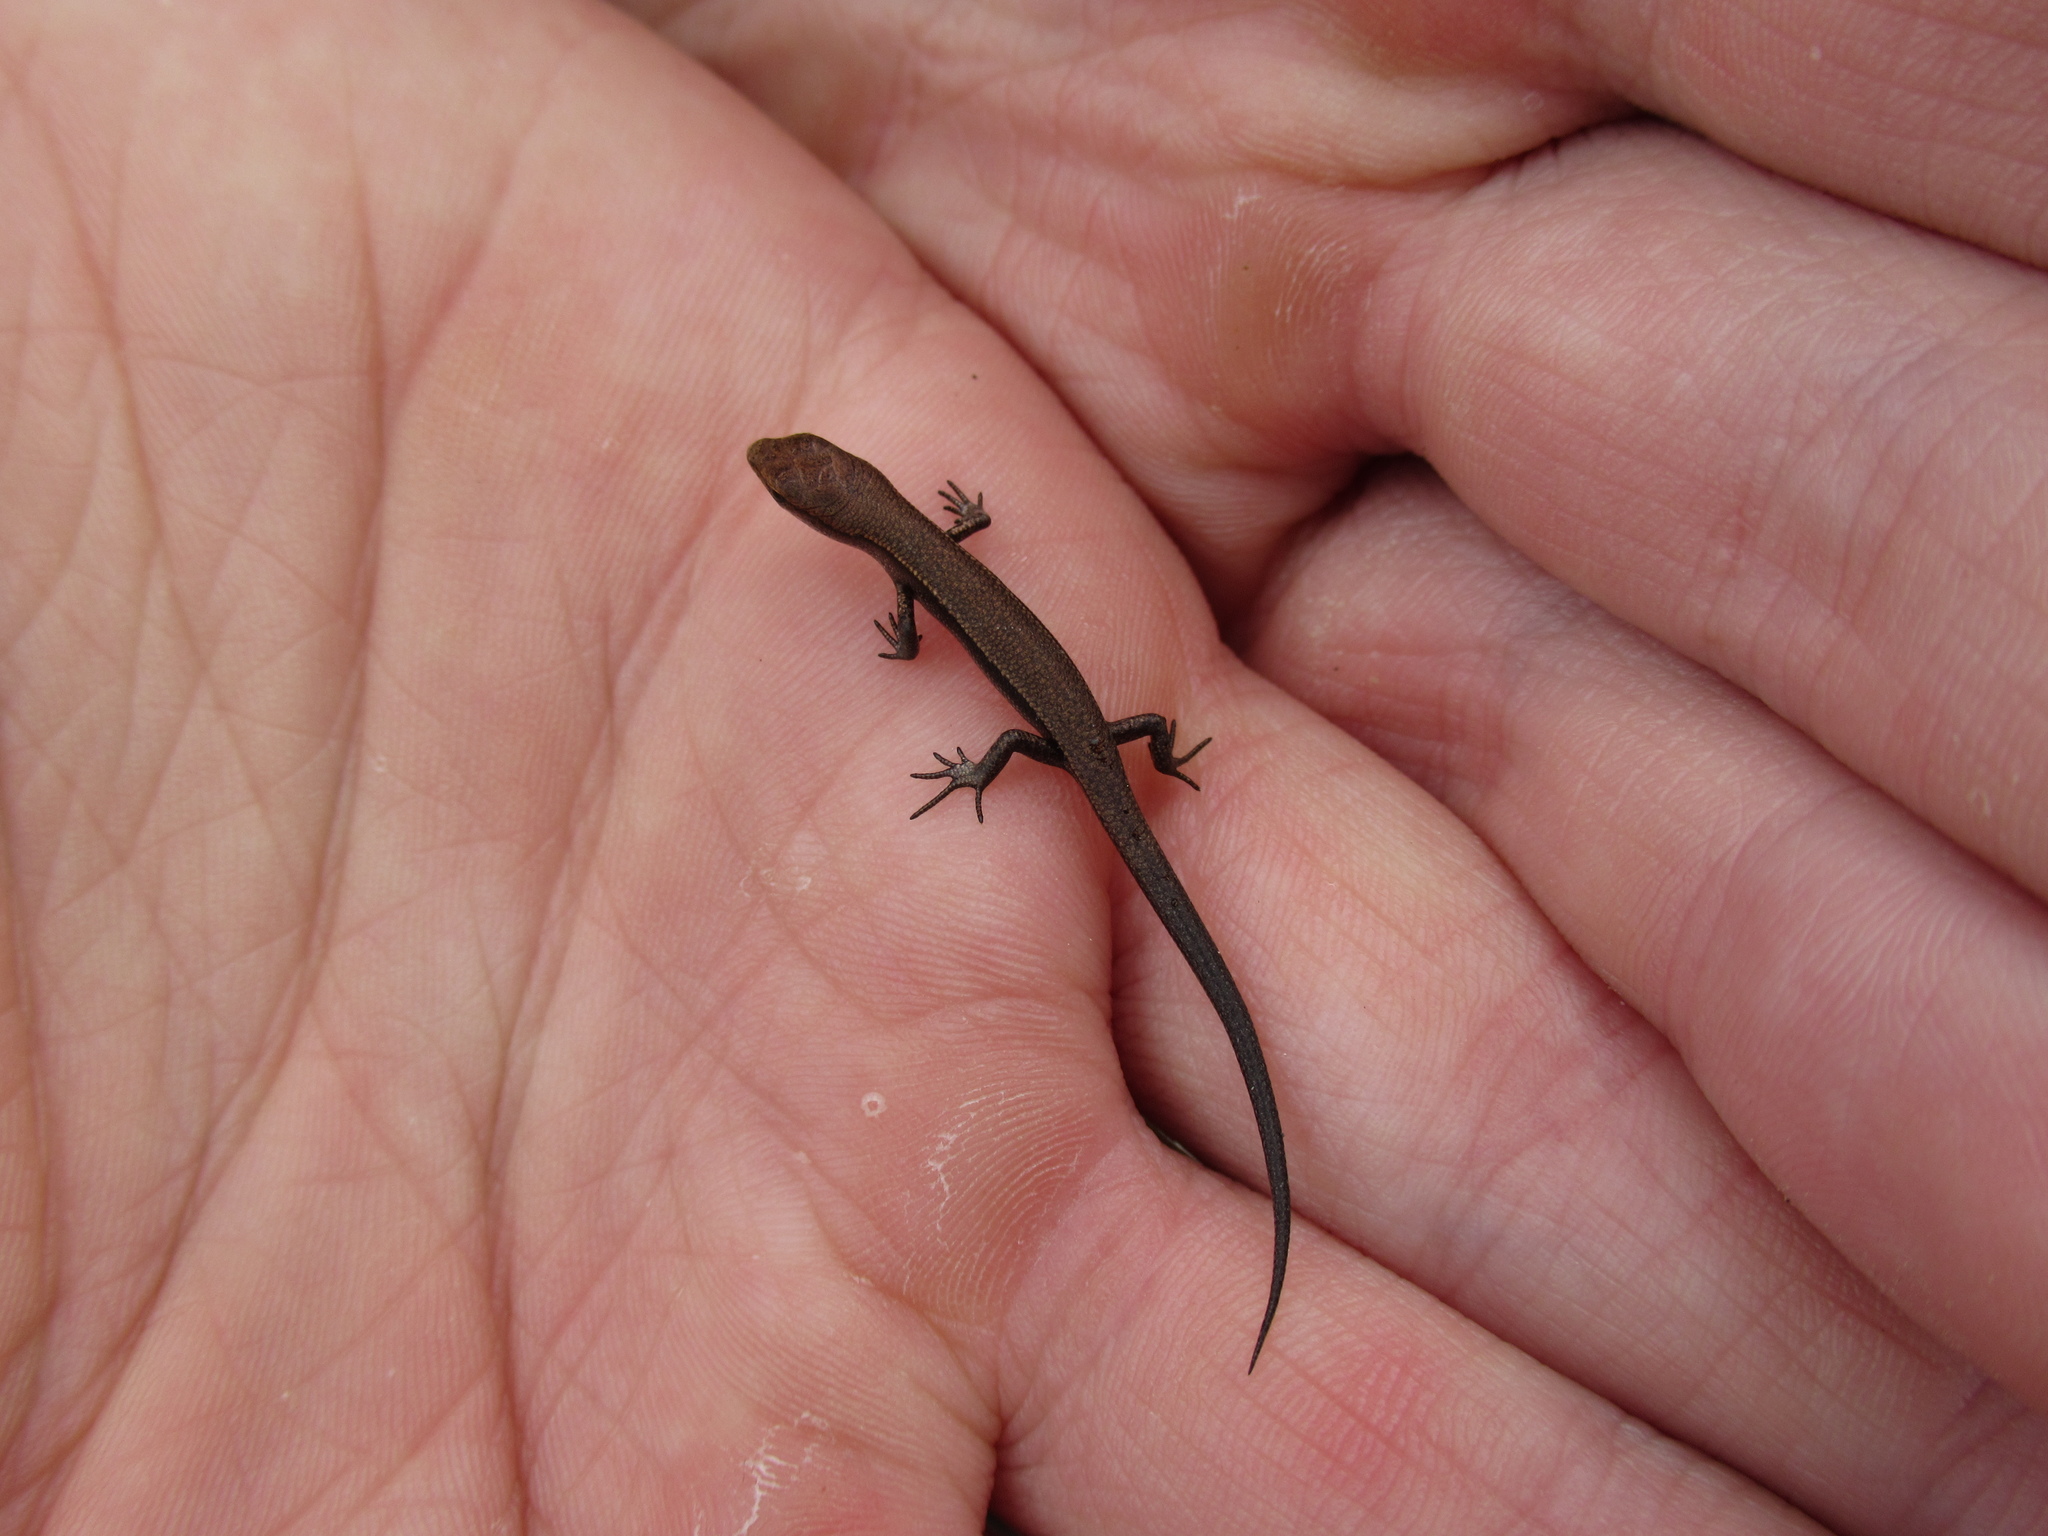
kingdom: Animalia
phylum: Chordata
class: Squamata
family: Scincidae
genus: Lampropholis
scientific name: Lampropholis delicata
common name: Plague skink
